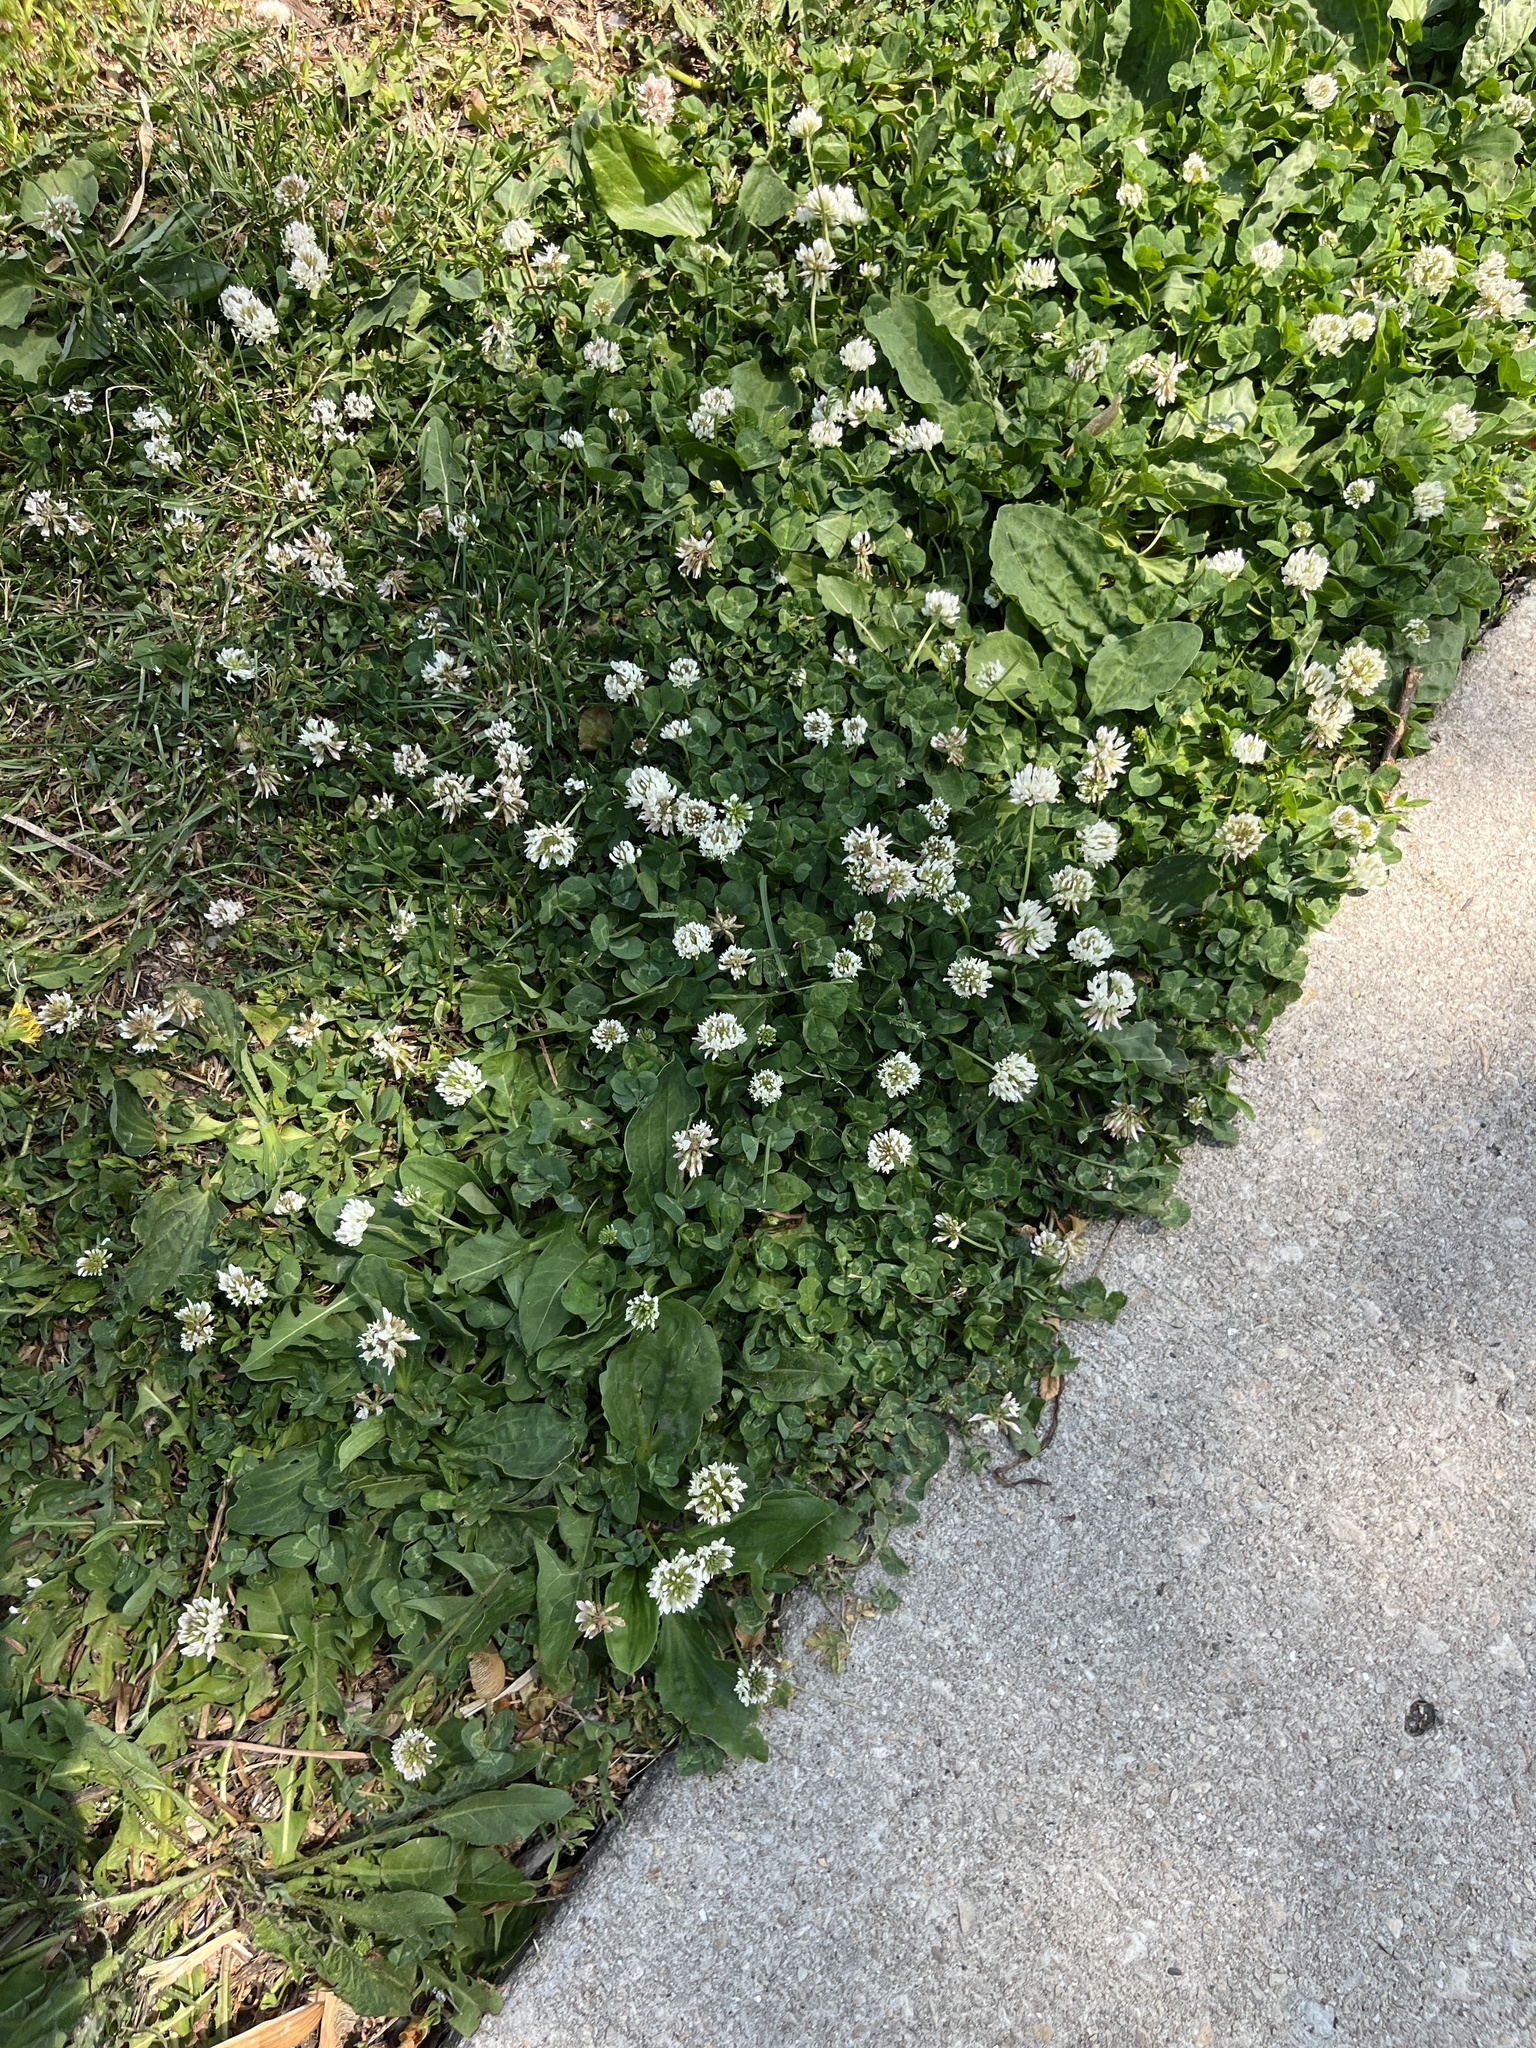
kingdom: Plantae
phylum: Tracheophyta
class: Magnoliopsida
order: Fabales
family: Fabaceae
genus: Trifolium
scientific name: Trifolium repens
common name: White clover
